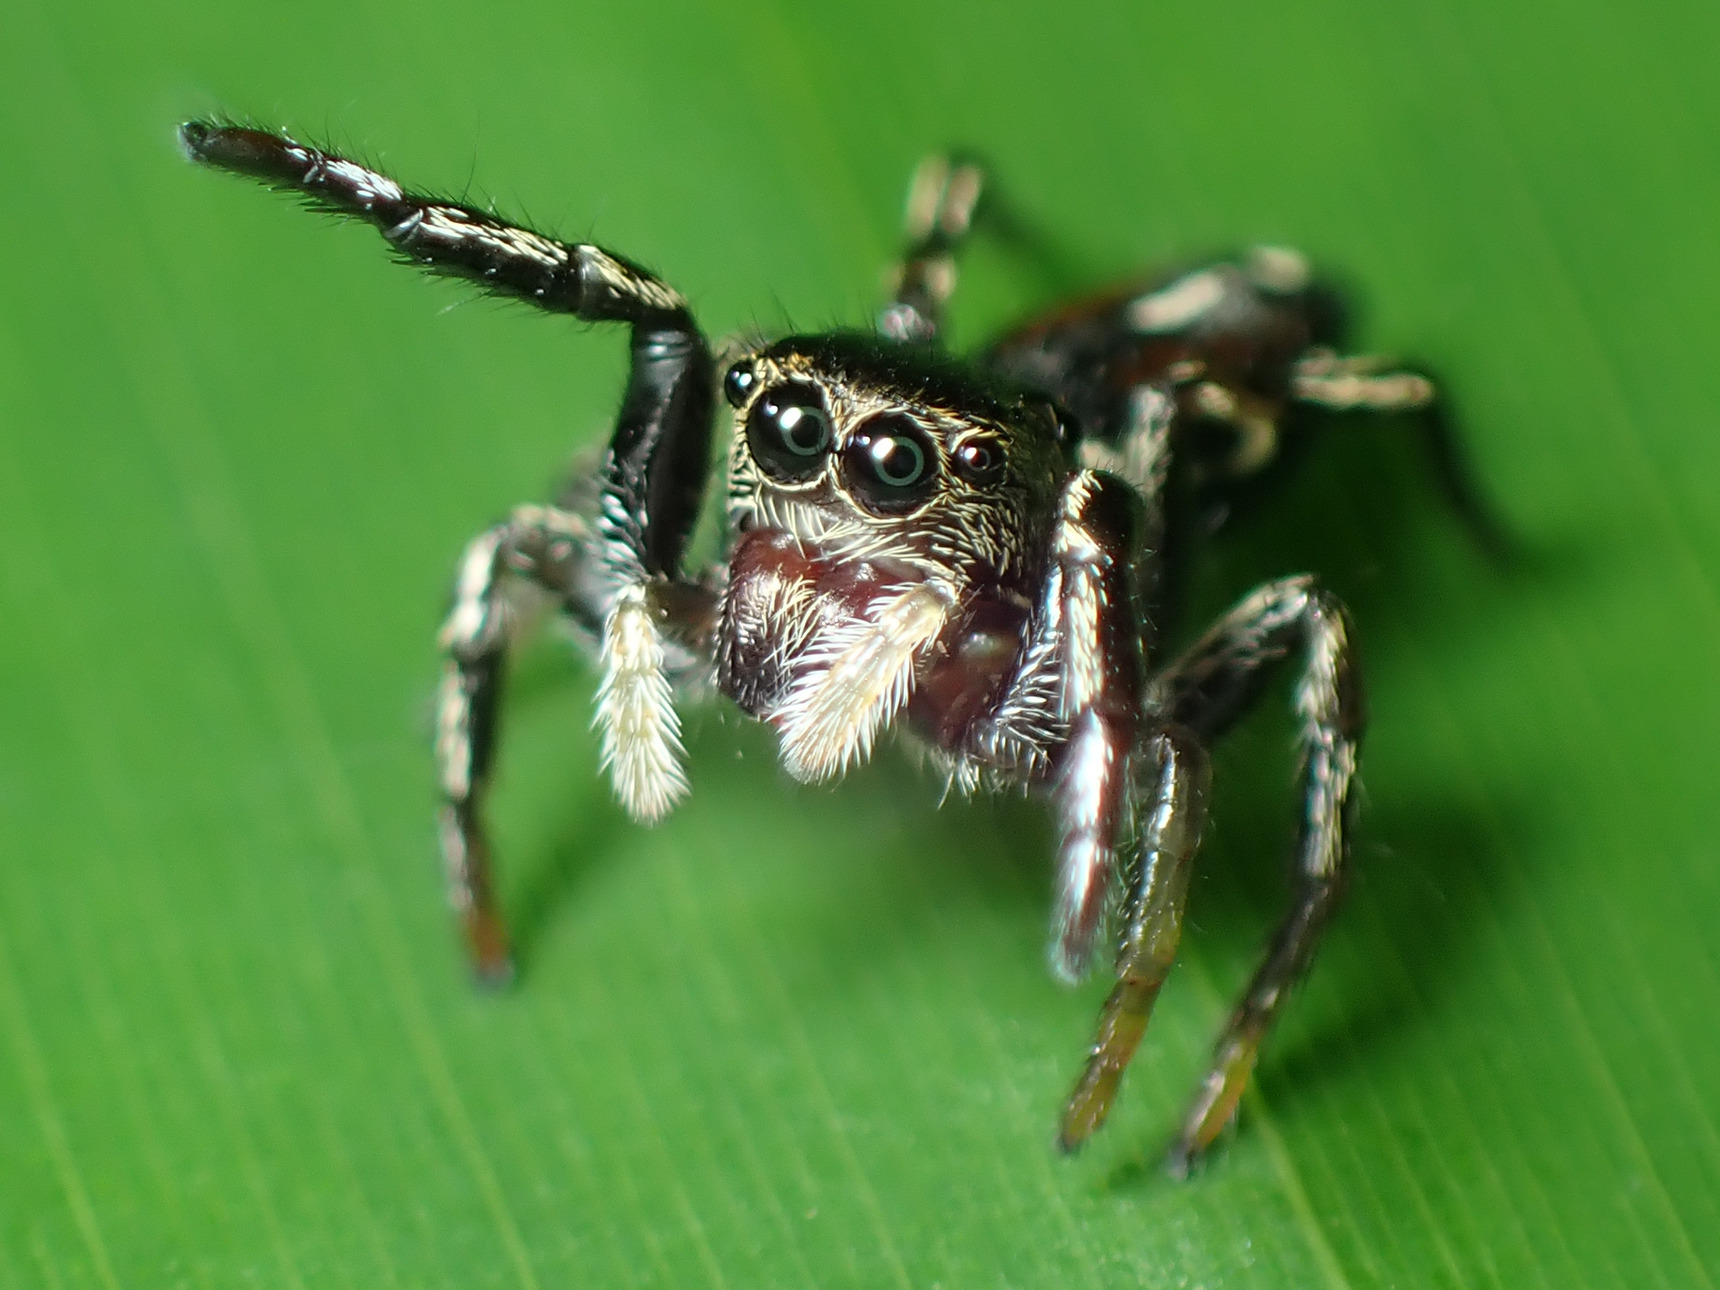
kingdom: Animalia
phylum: Arthropoda
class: Arachnida
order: Araneae
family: Salticidae
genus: Pachomius
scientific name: Pachomius dybowskii
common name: Jumping spiders
